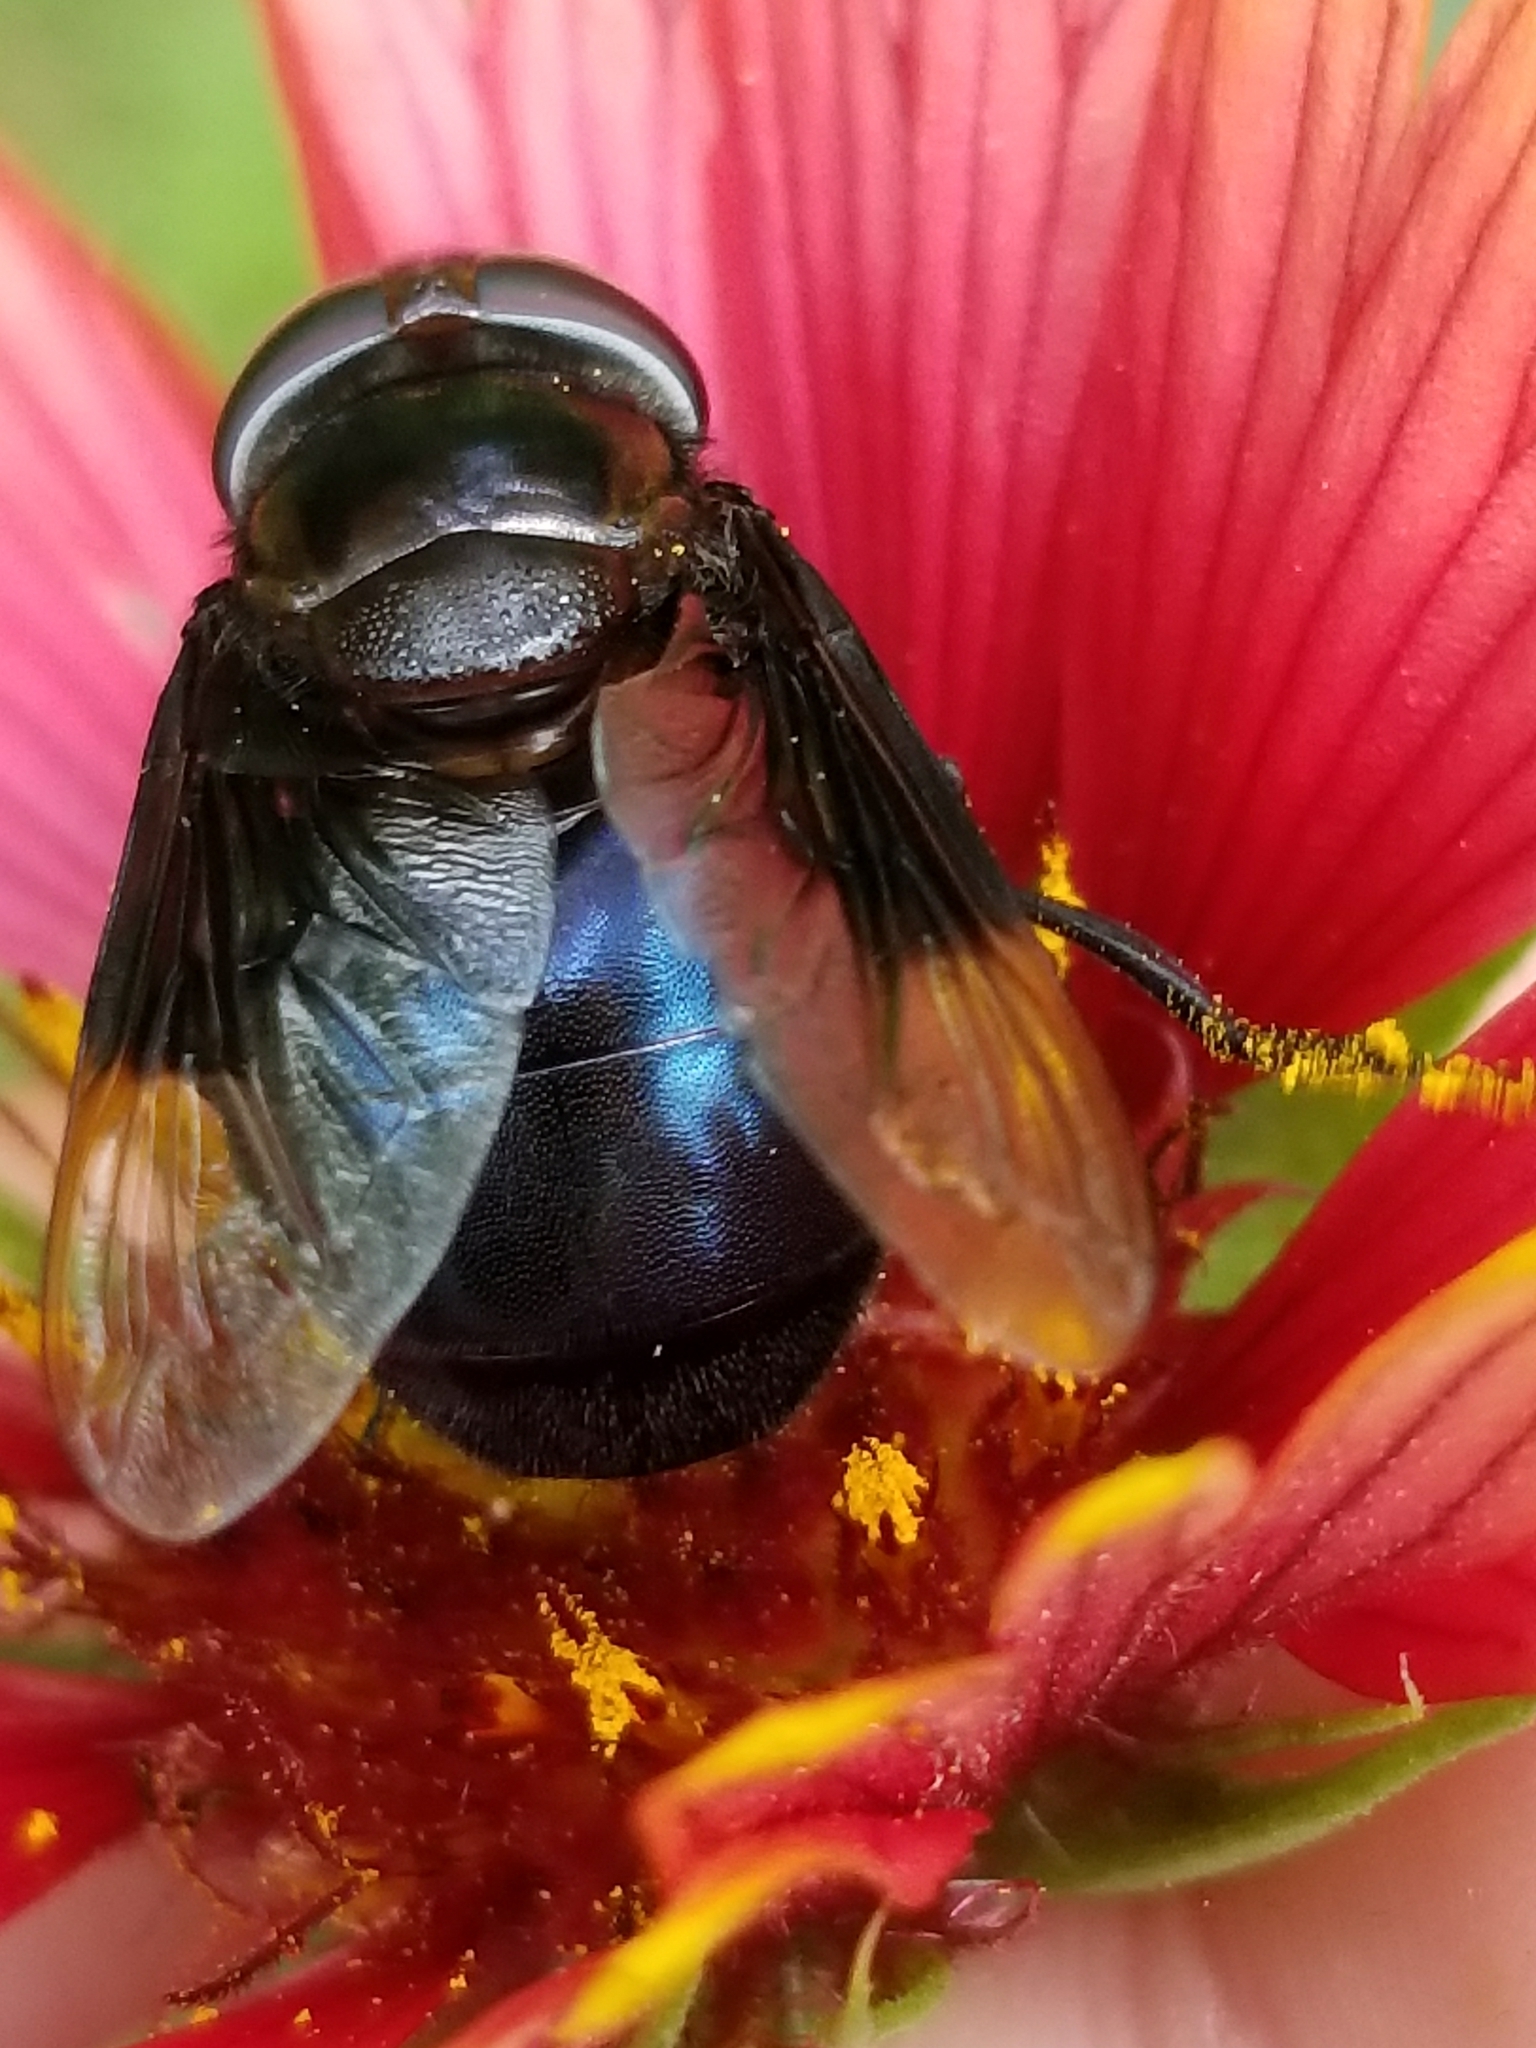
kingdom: Animalia
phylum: Arthropoda
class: Insecta
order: Diptera
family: Syrphidae
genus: Copestylum
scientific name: Copestylum mexicanum
